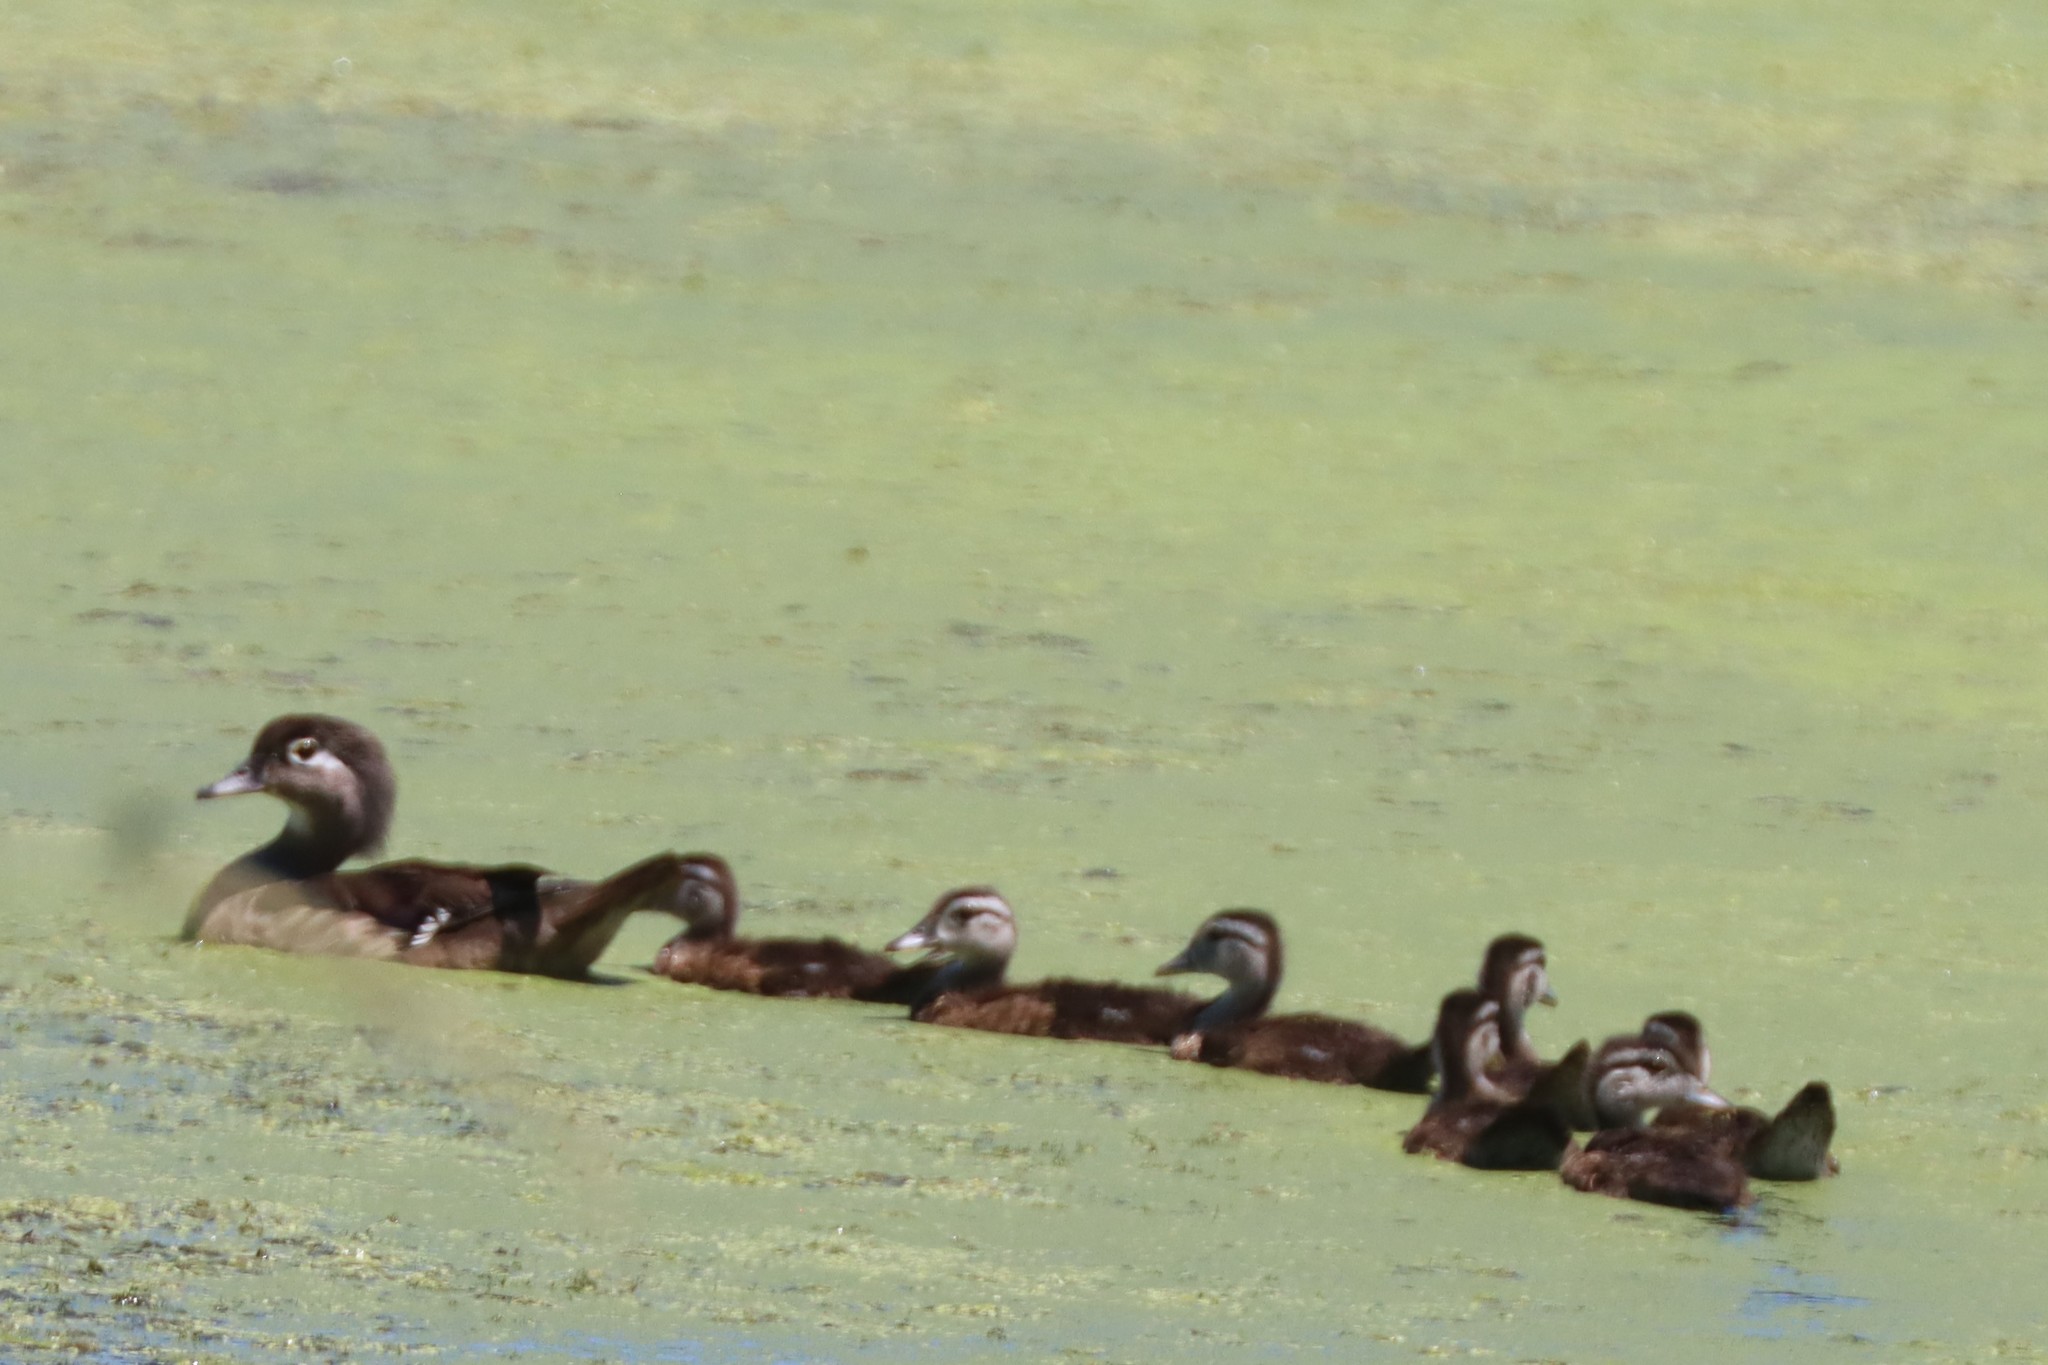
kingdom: Animalia
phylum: Chordata
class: Aves
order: Anseriformes
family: Anatidae
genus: Aix
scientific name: Aix sponsa
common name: Wood duck
